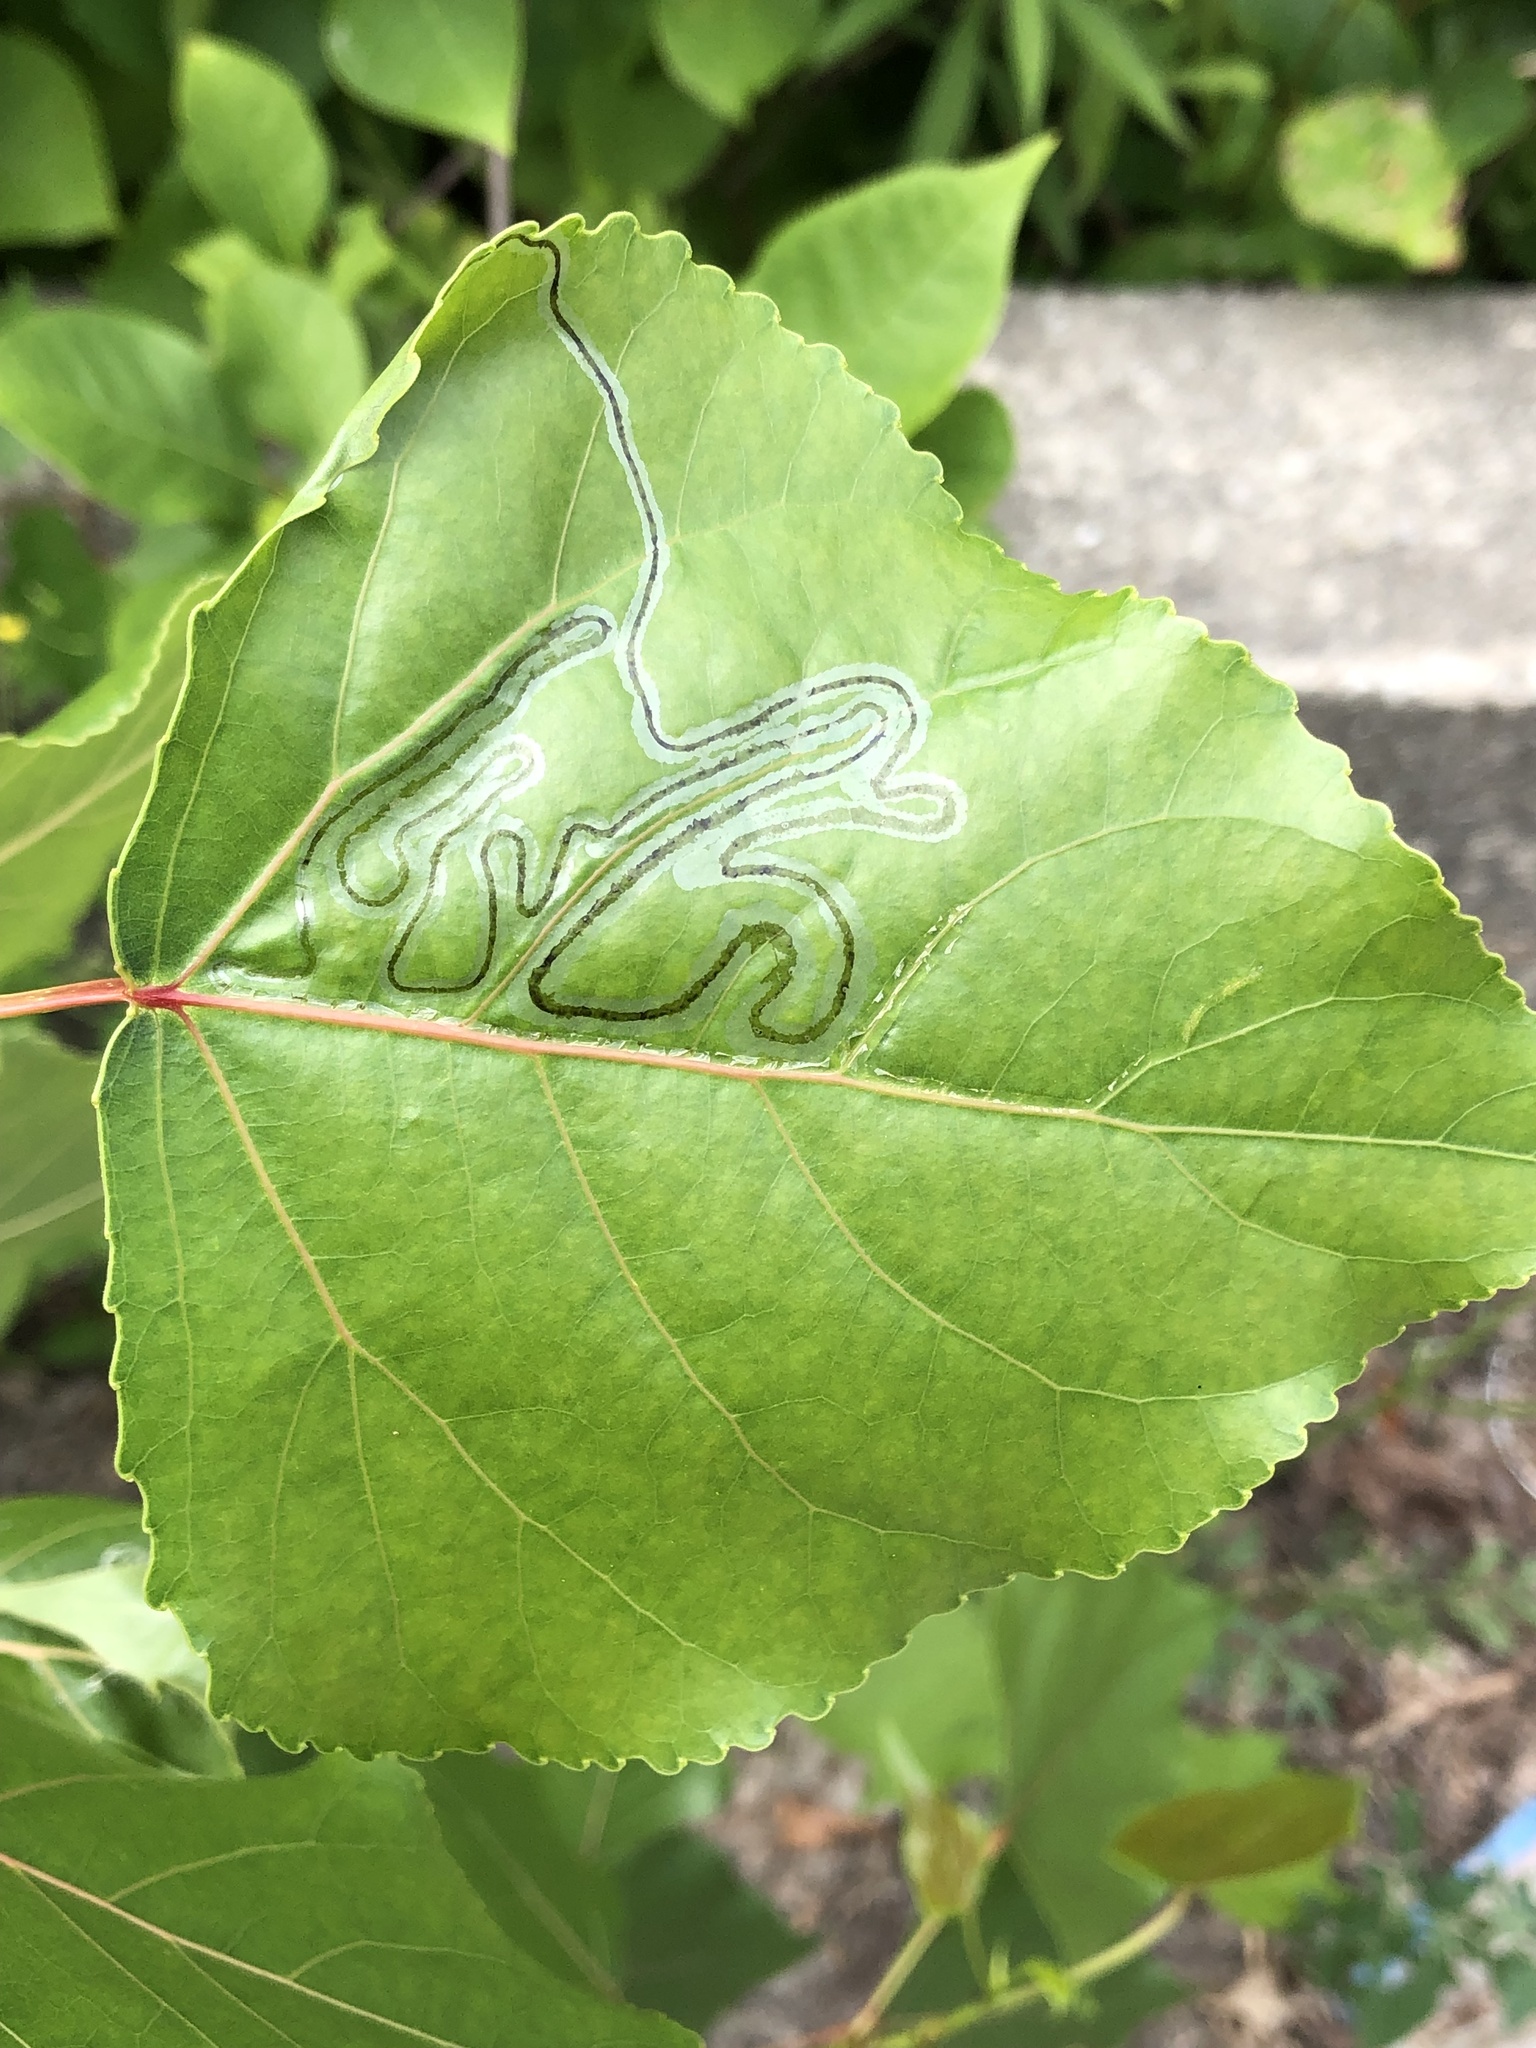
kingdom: Animalia
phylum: Arthropoda
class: Insecta
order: Lepidoptera
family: Gracillariidae
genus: Phyllocnistis
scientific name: Phyllocnistis populiella
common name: Aspen serpentine leafminer moth
